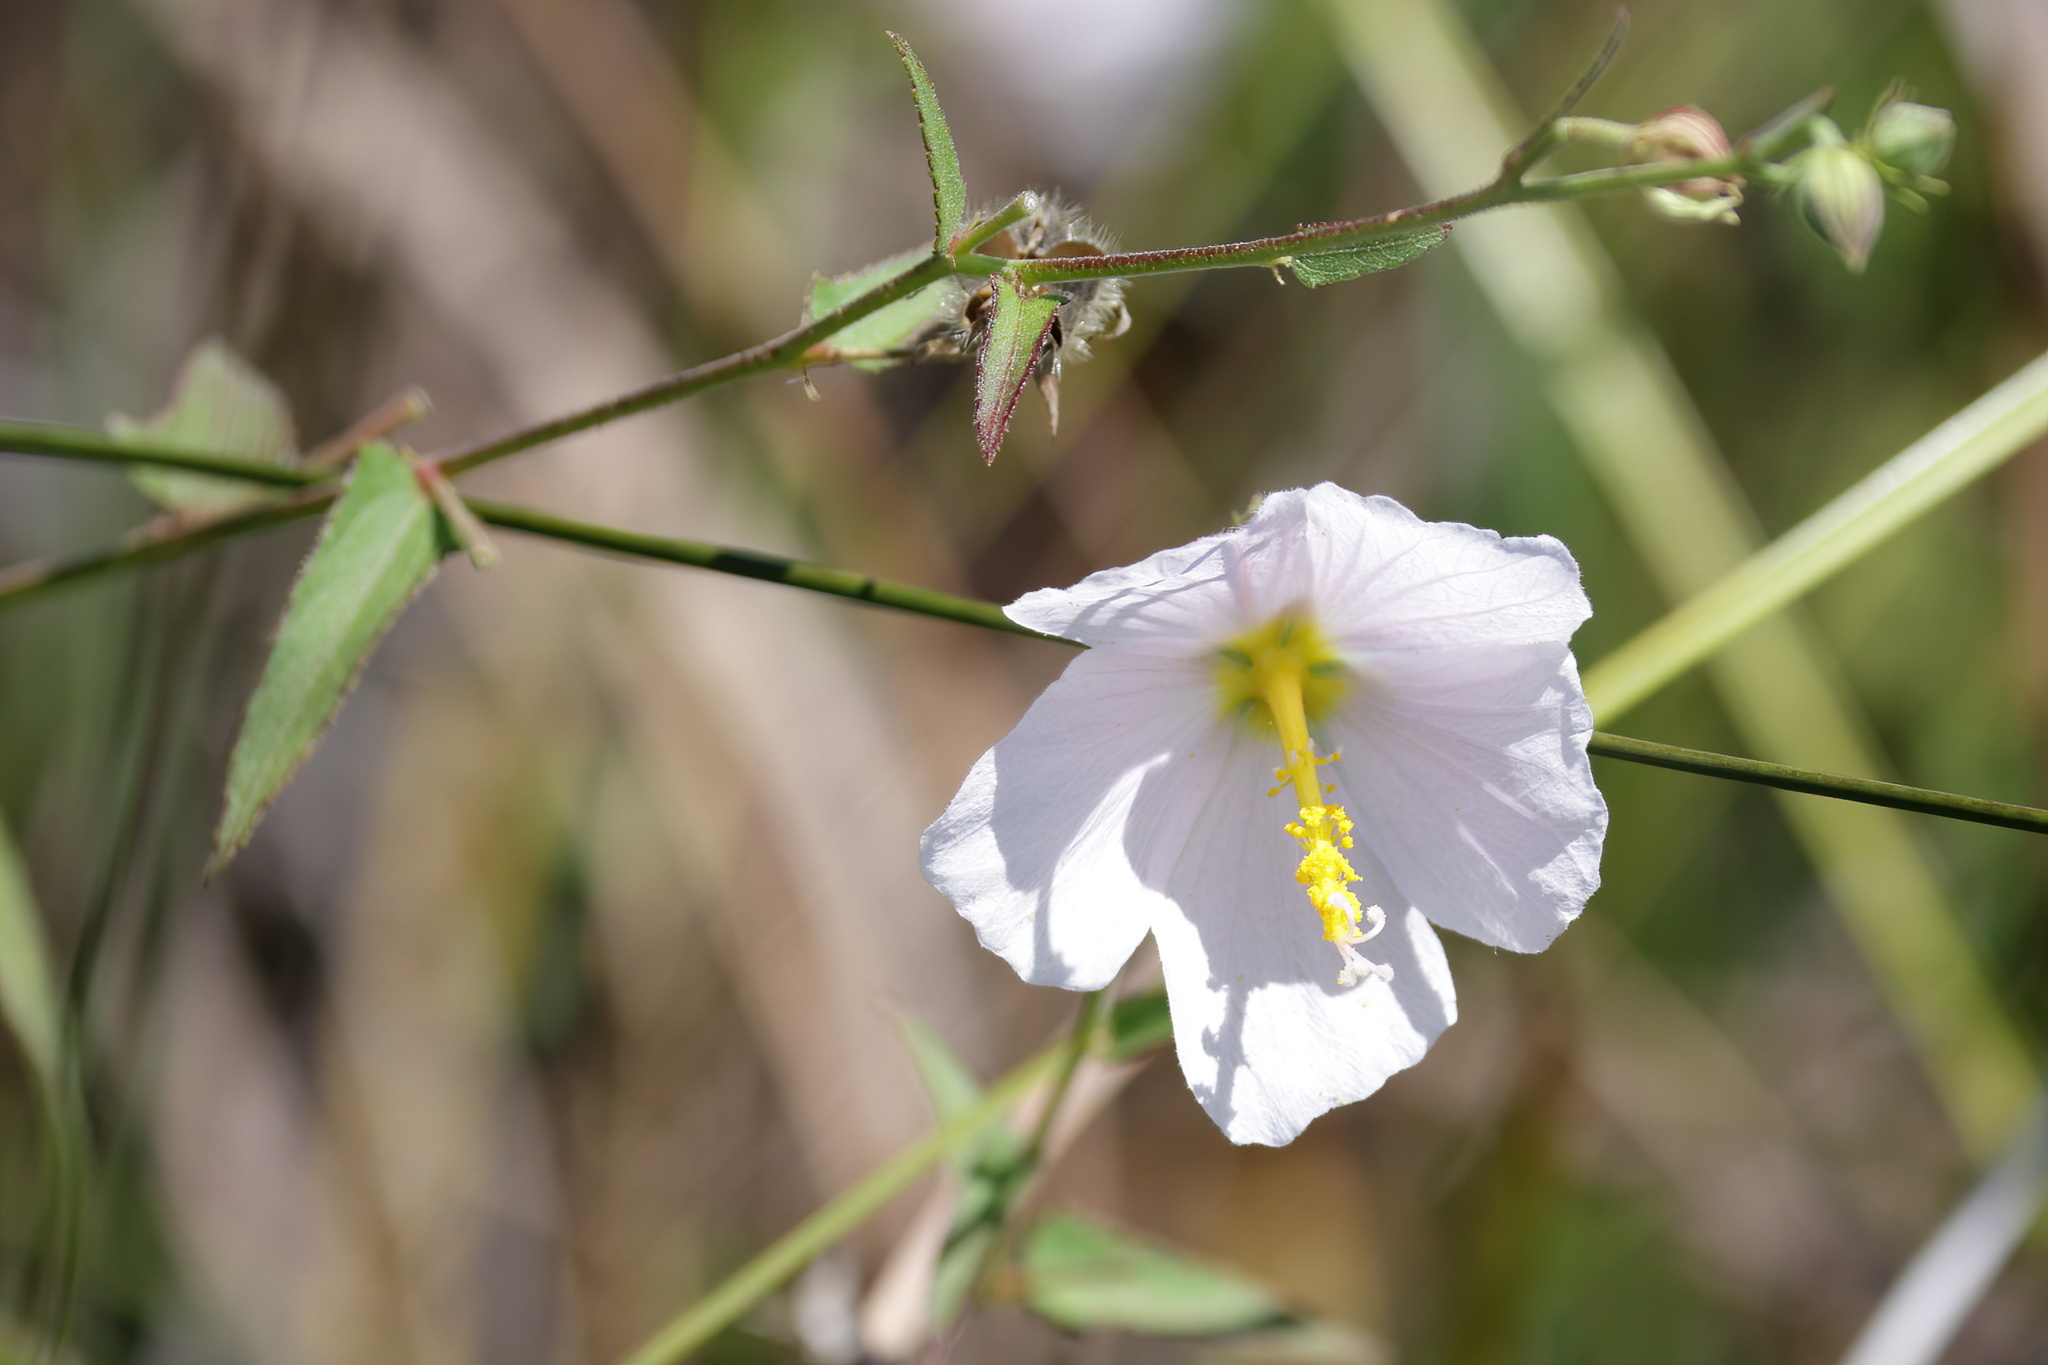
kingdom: Plantae
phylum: Tracheophyta
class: Magnoliopsida
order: Malvales
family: Malvaceae
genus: Kosteletzkya
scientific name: Kosteletzkya pentacarpos
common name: Virginia saltmarsh mallow
